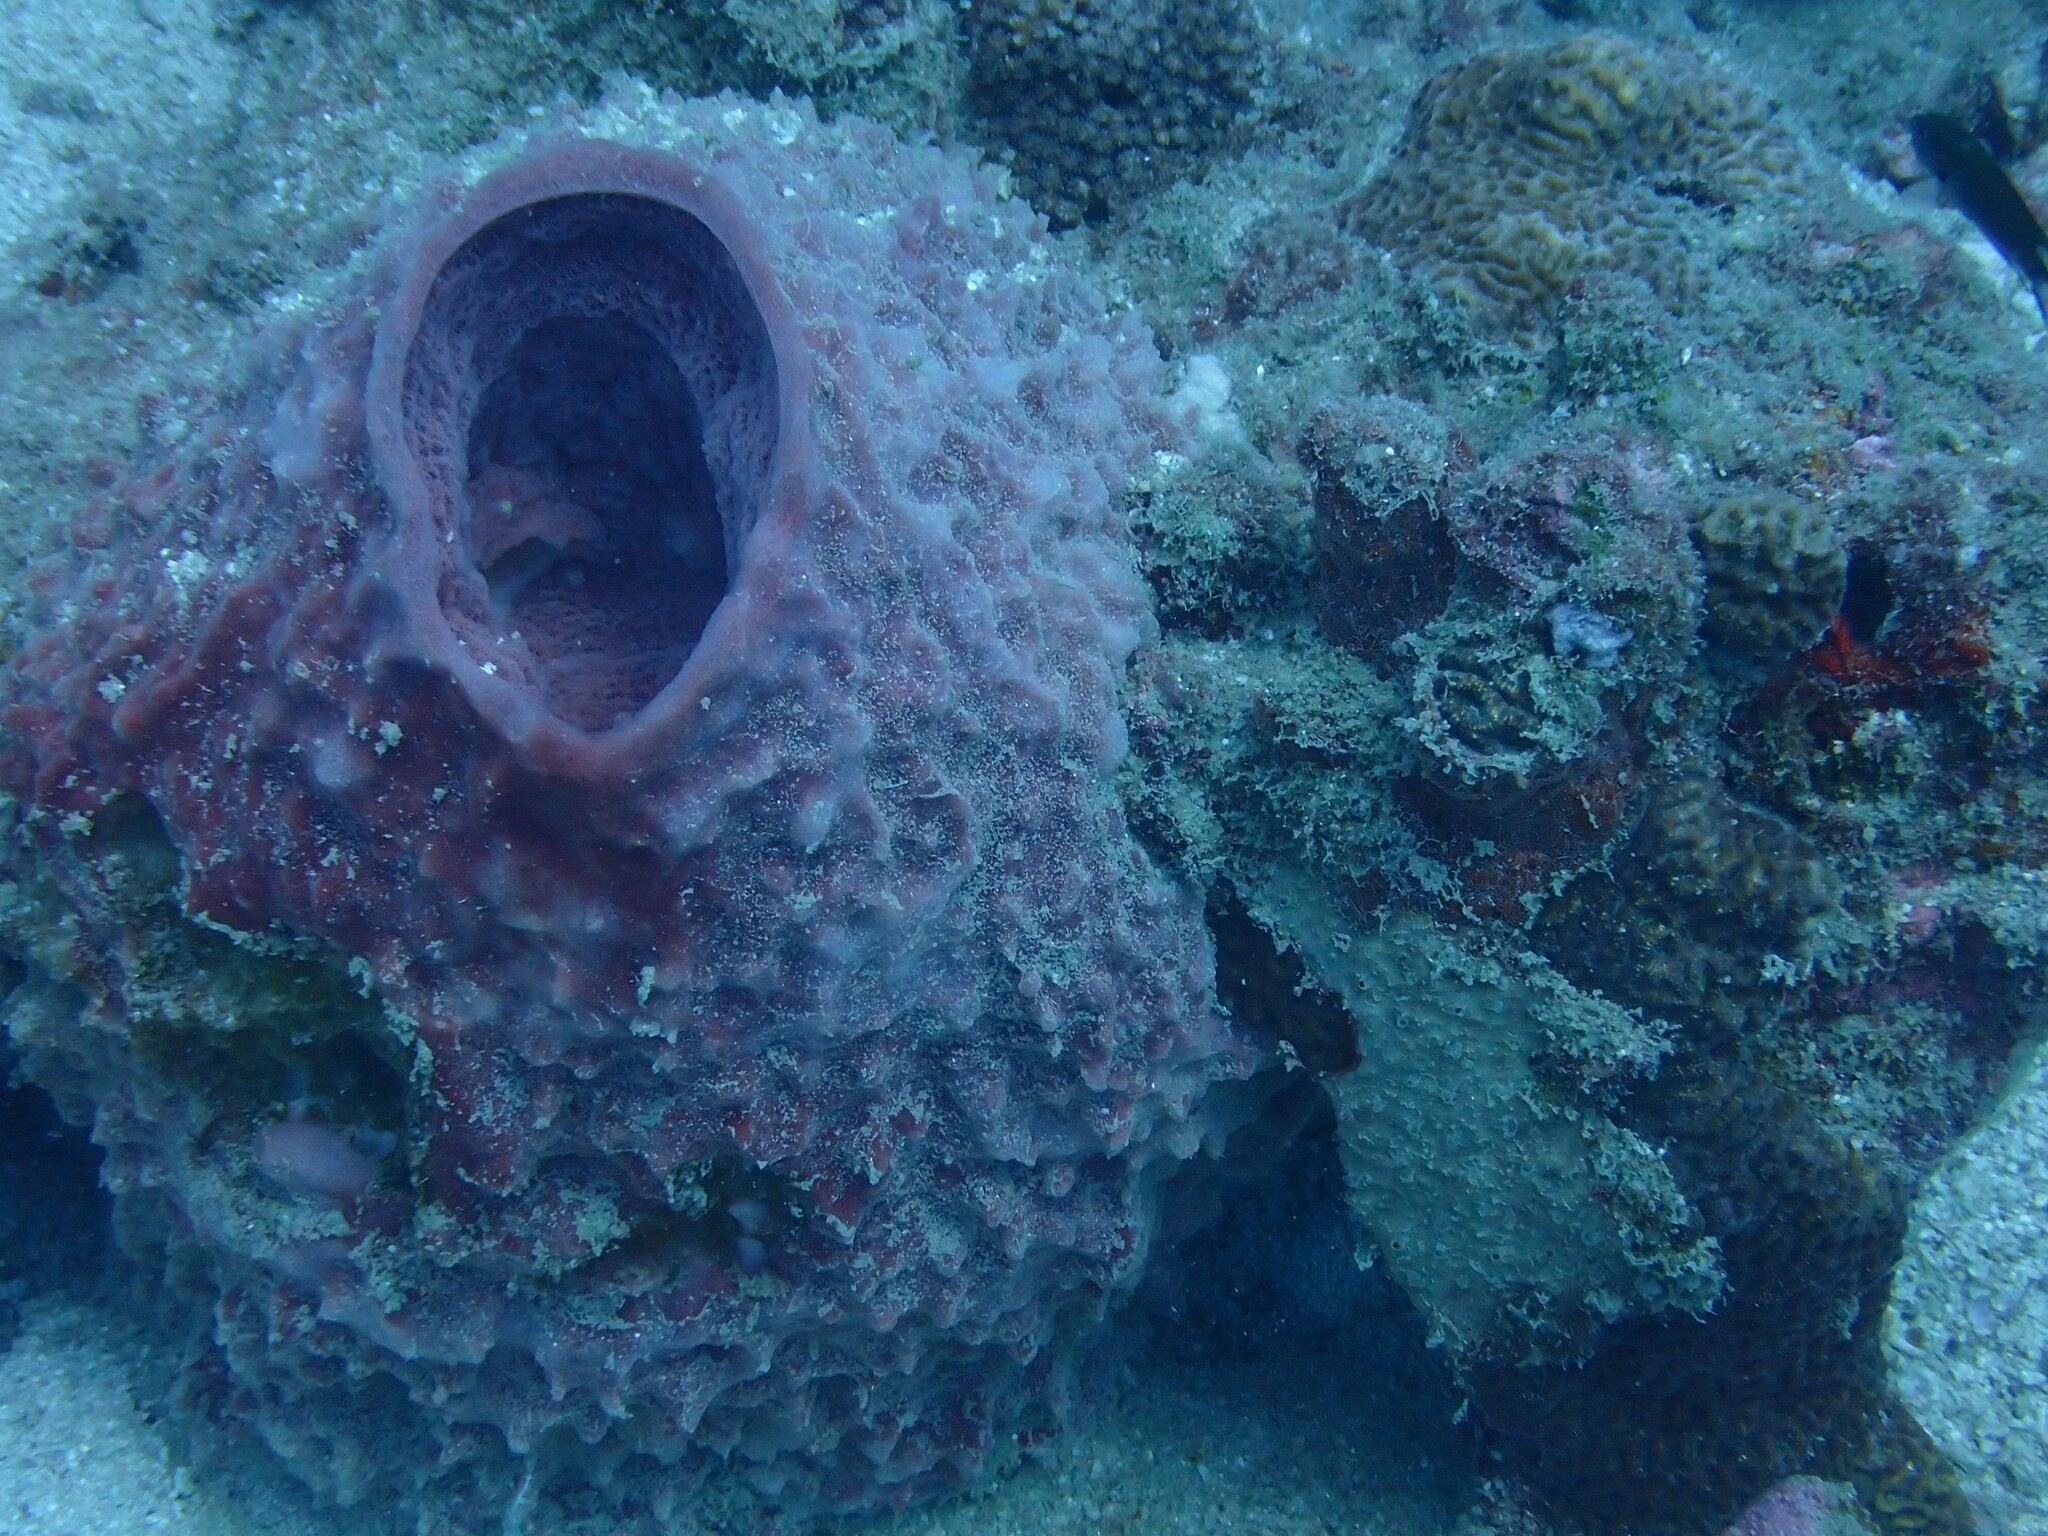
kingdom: Animalia
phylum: Porifera
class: Demospongiae
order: Haplosclerida
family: Petrosiidae
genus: Xestospongia
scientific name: Xestospongia testudinaria
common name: Barrel sponge
